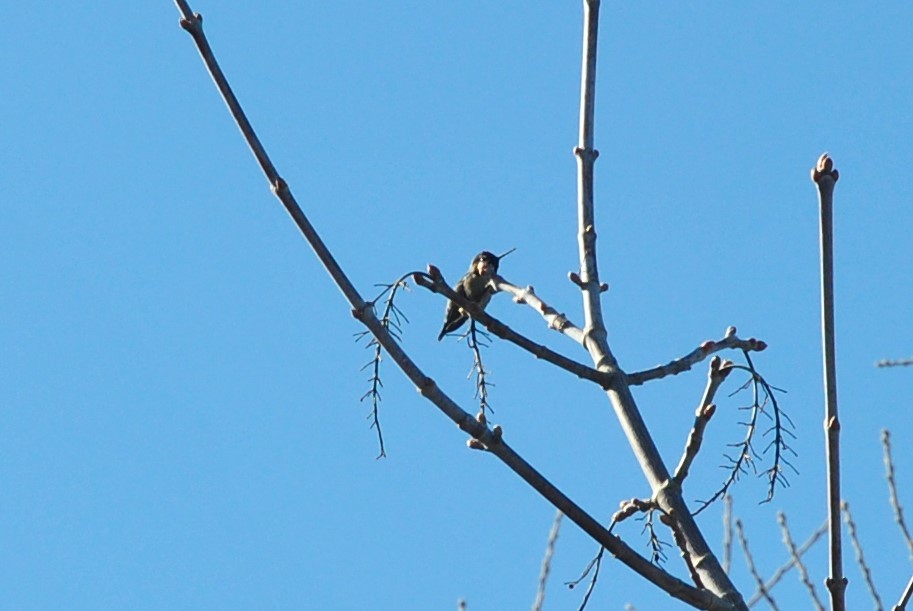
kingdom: Animalia
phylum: Chordata
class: Aves
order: Apodiformes
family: Trochilidae
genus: Calypte
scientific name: Calypte anna
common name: Anna's hummingbird
